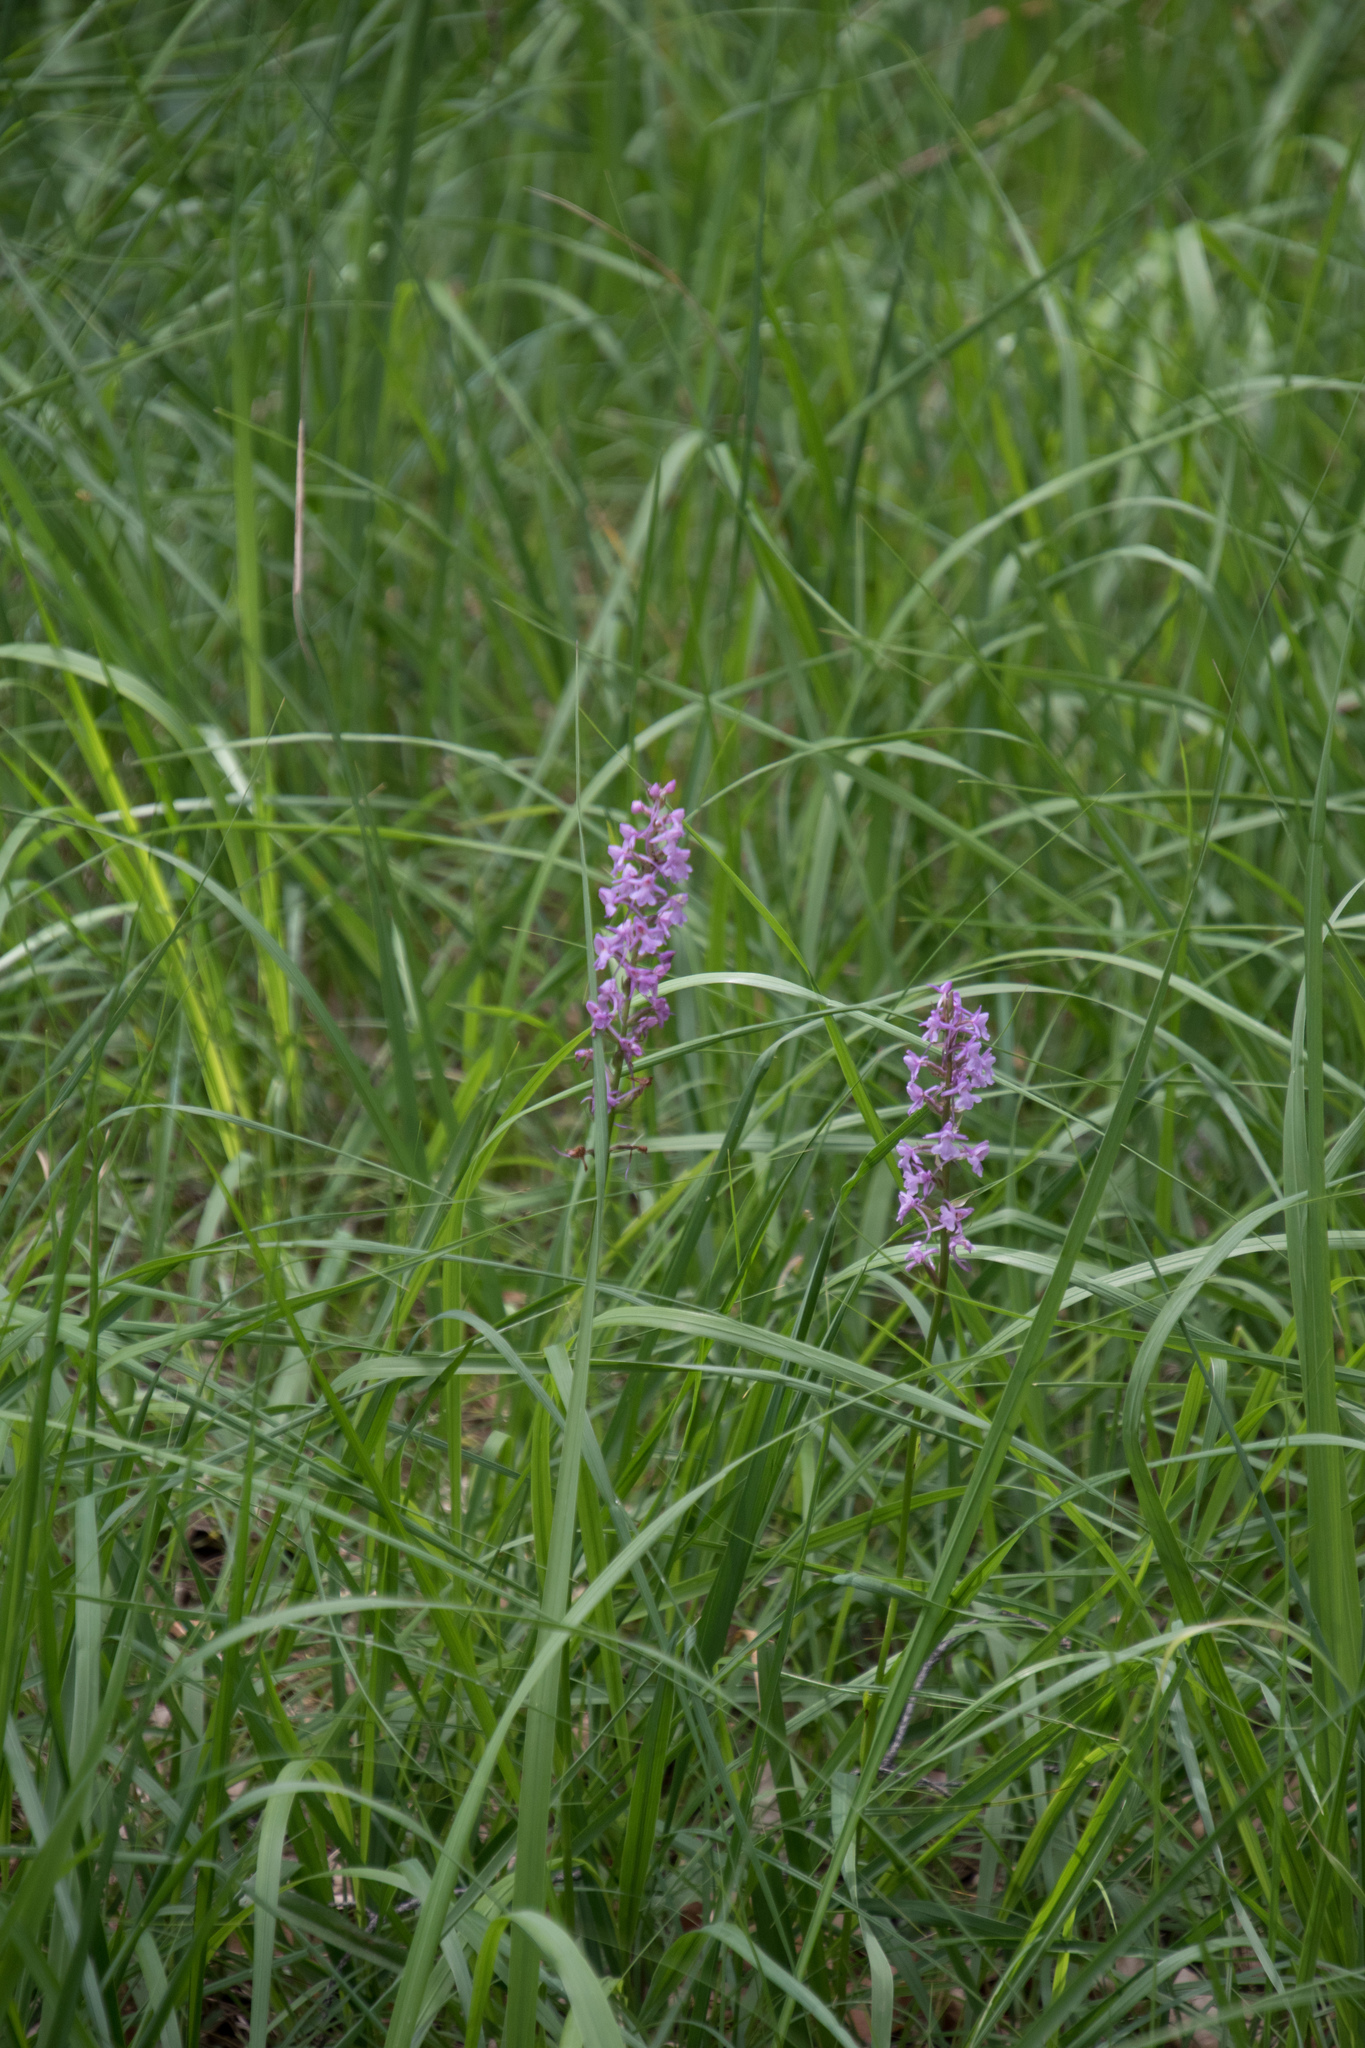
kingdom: Plantae
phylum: Tracheophyta
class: Liliopsida
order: Asparagales
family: Orchidaceae
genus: Gymnadenia
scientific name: Gymnadenia conopsea
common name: Fragrant orchid
